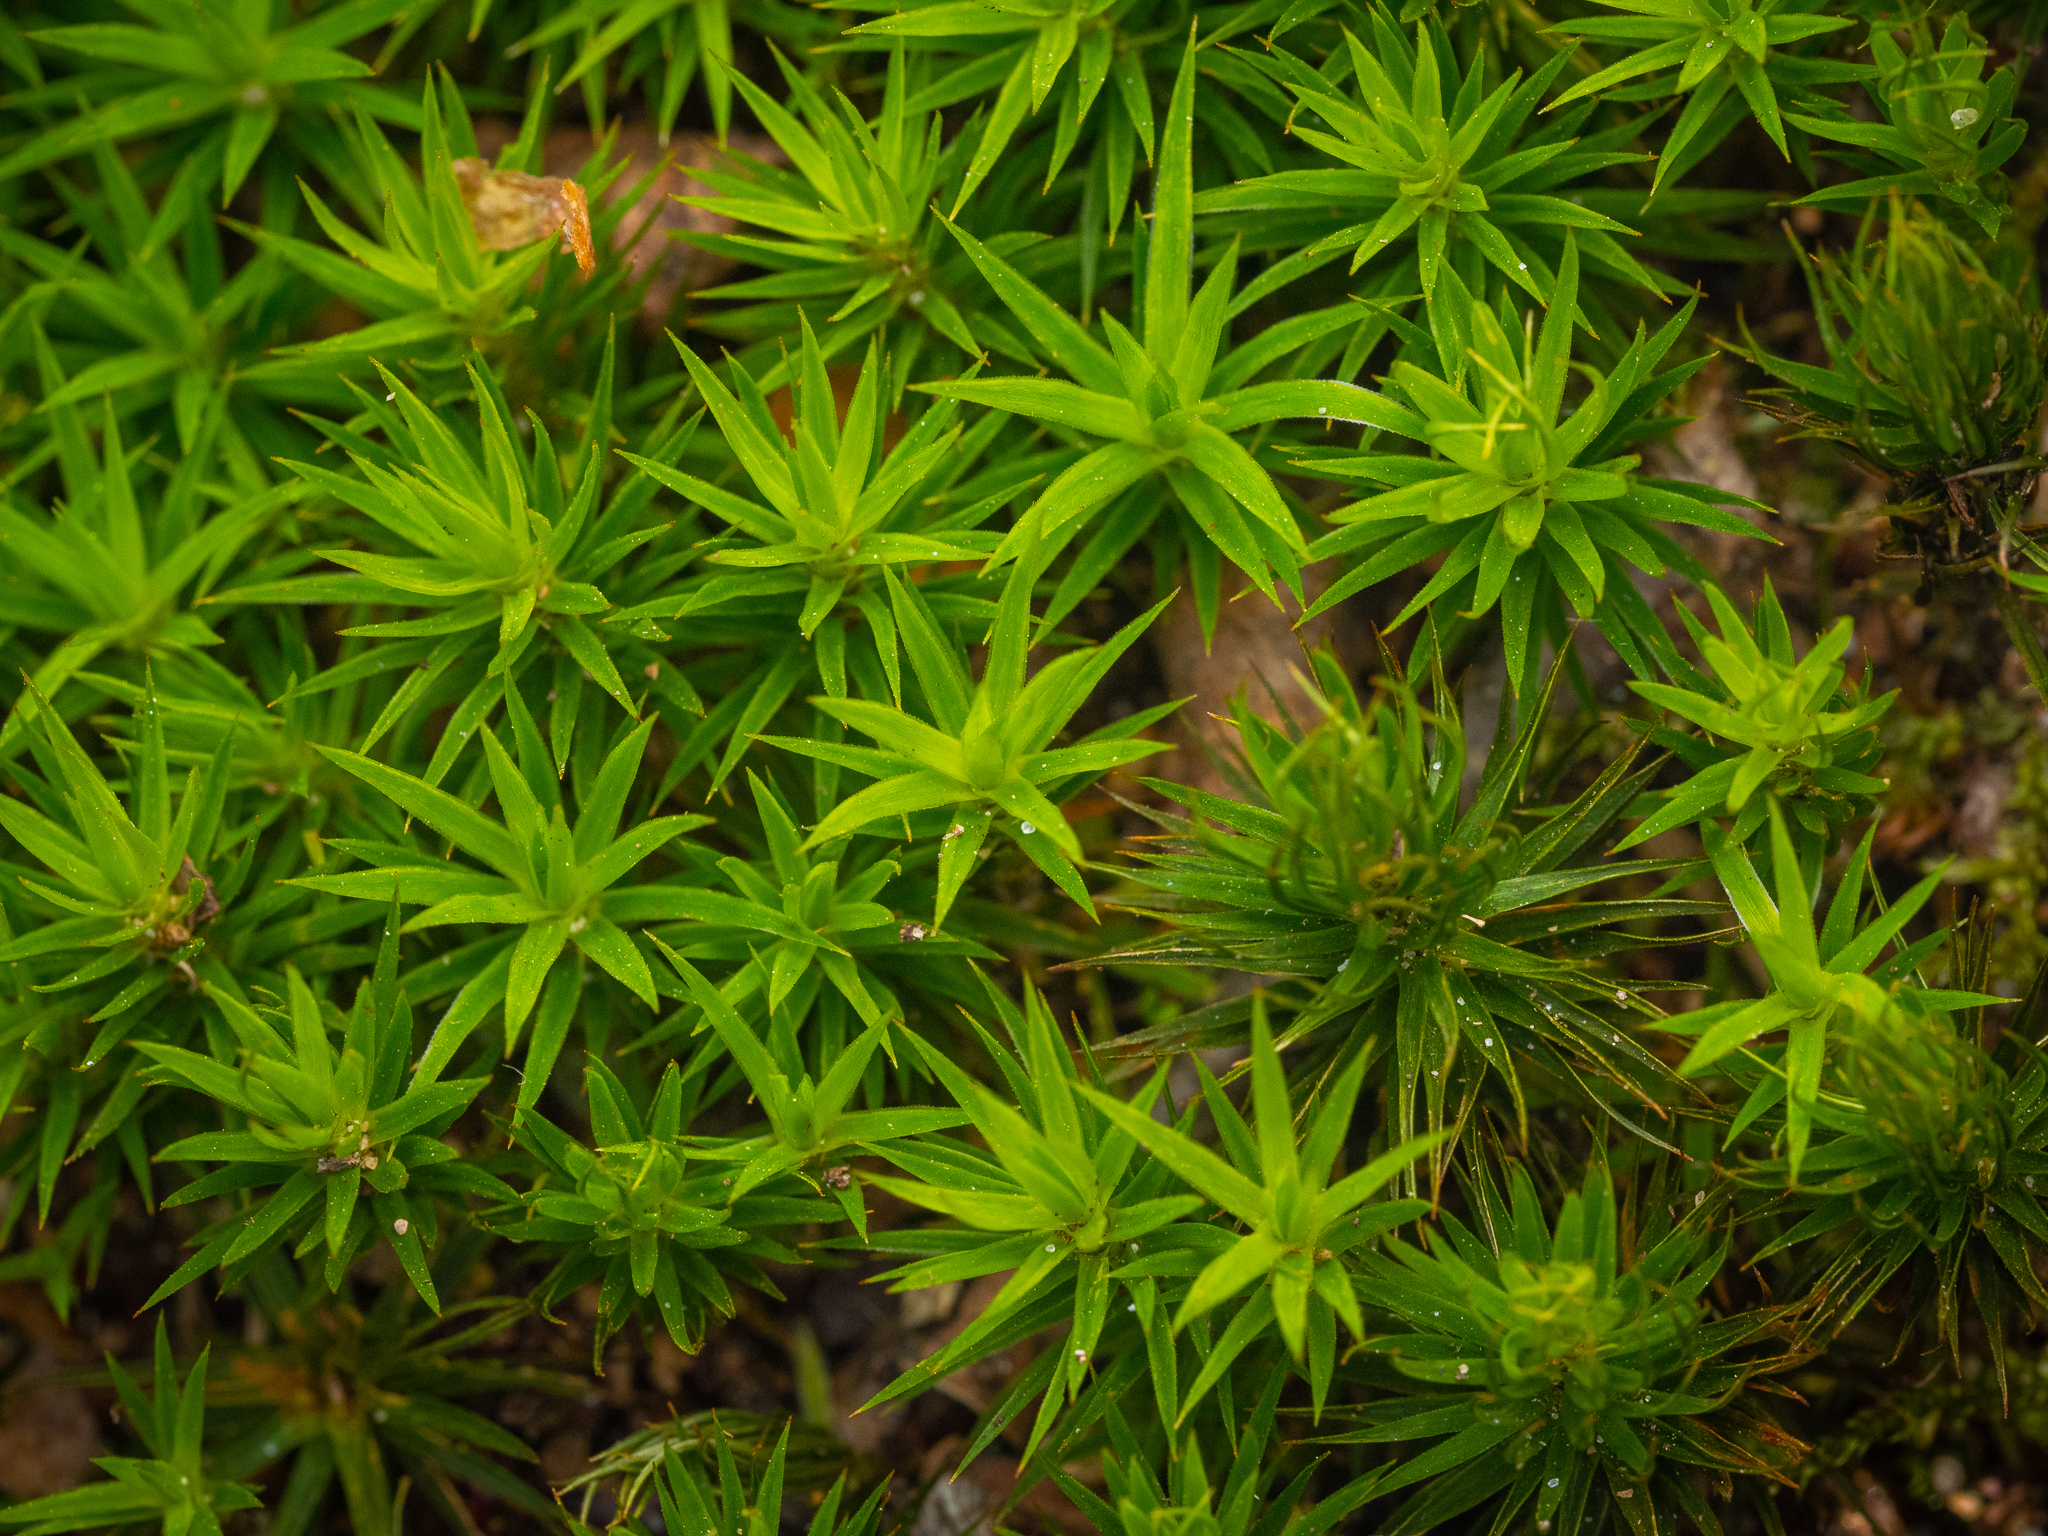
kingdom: Plantae
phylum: Bryophyta
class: Polytrichopsida
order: Polytrichales
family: Polytrichaceae
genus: Polytrichum
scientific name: Polytrichum formosum
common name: Bank haircap moss
